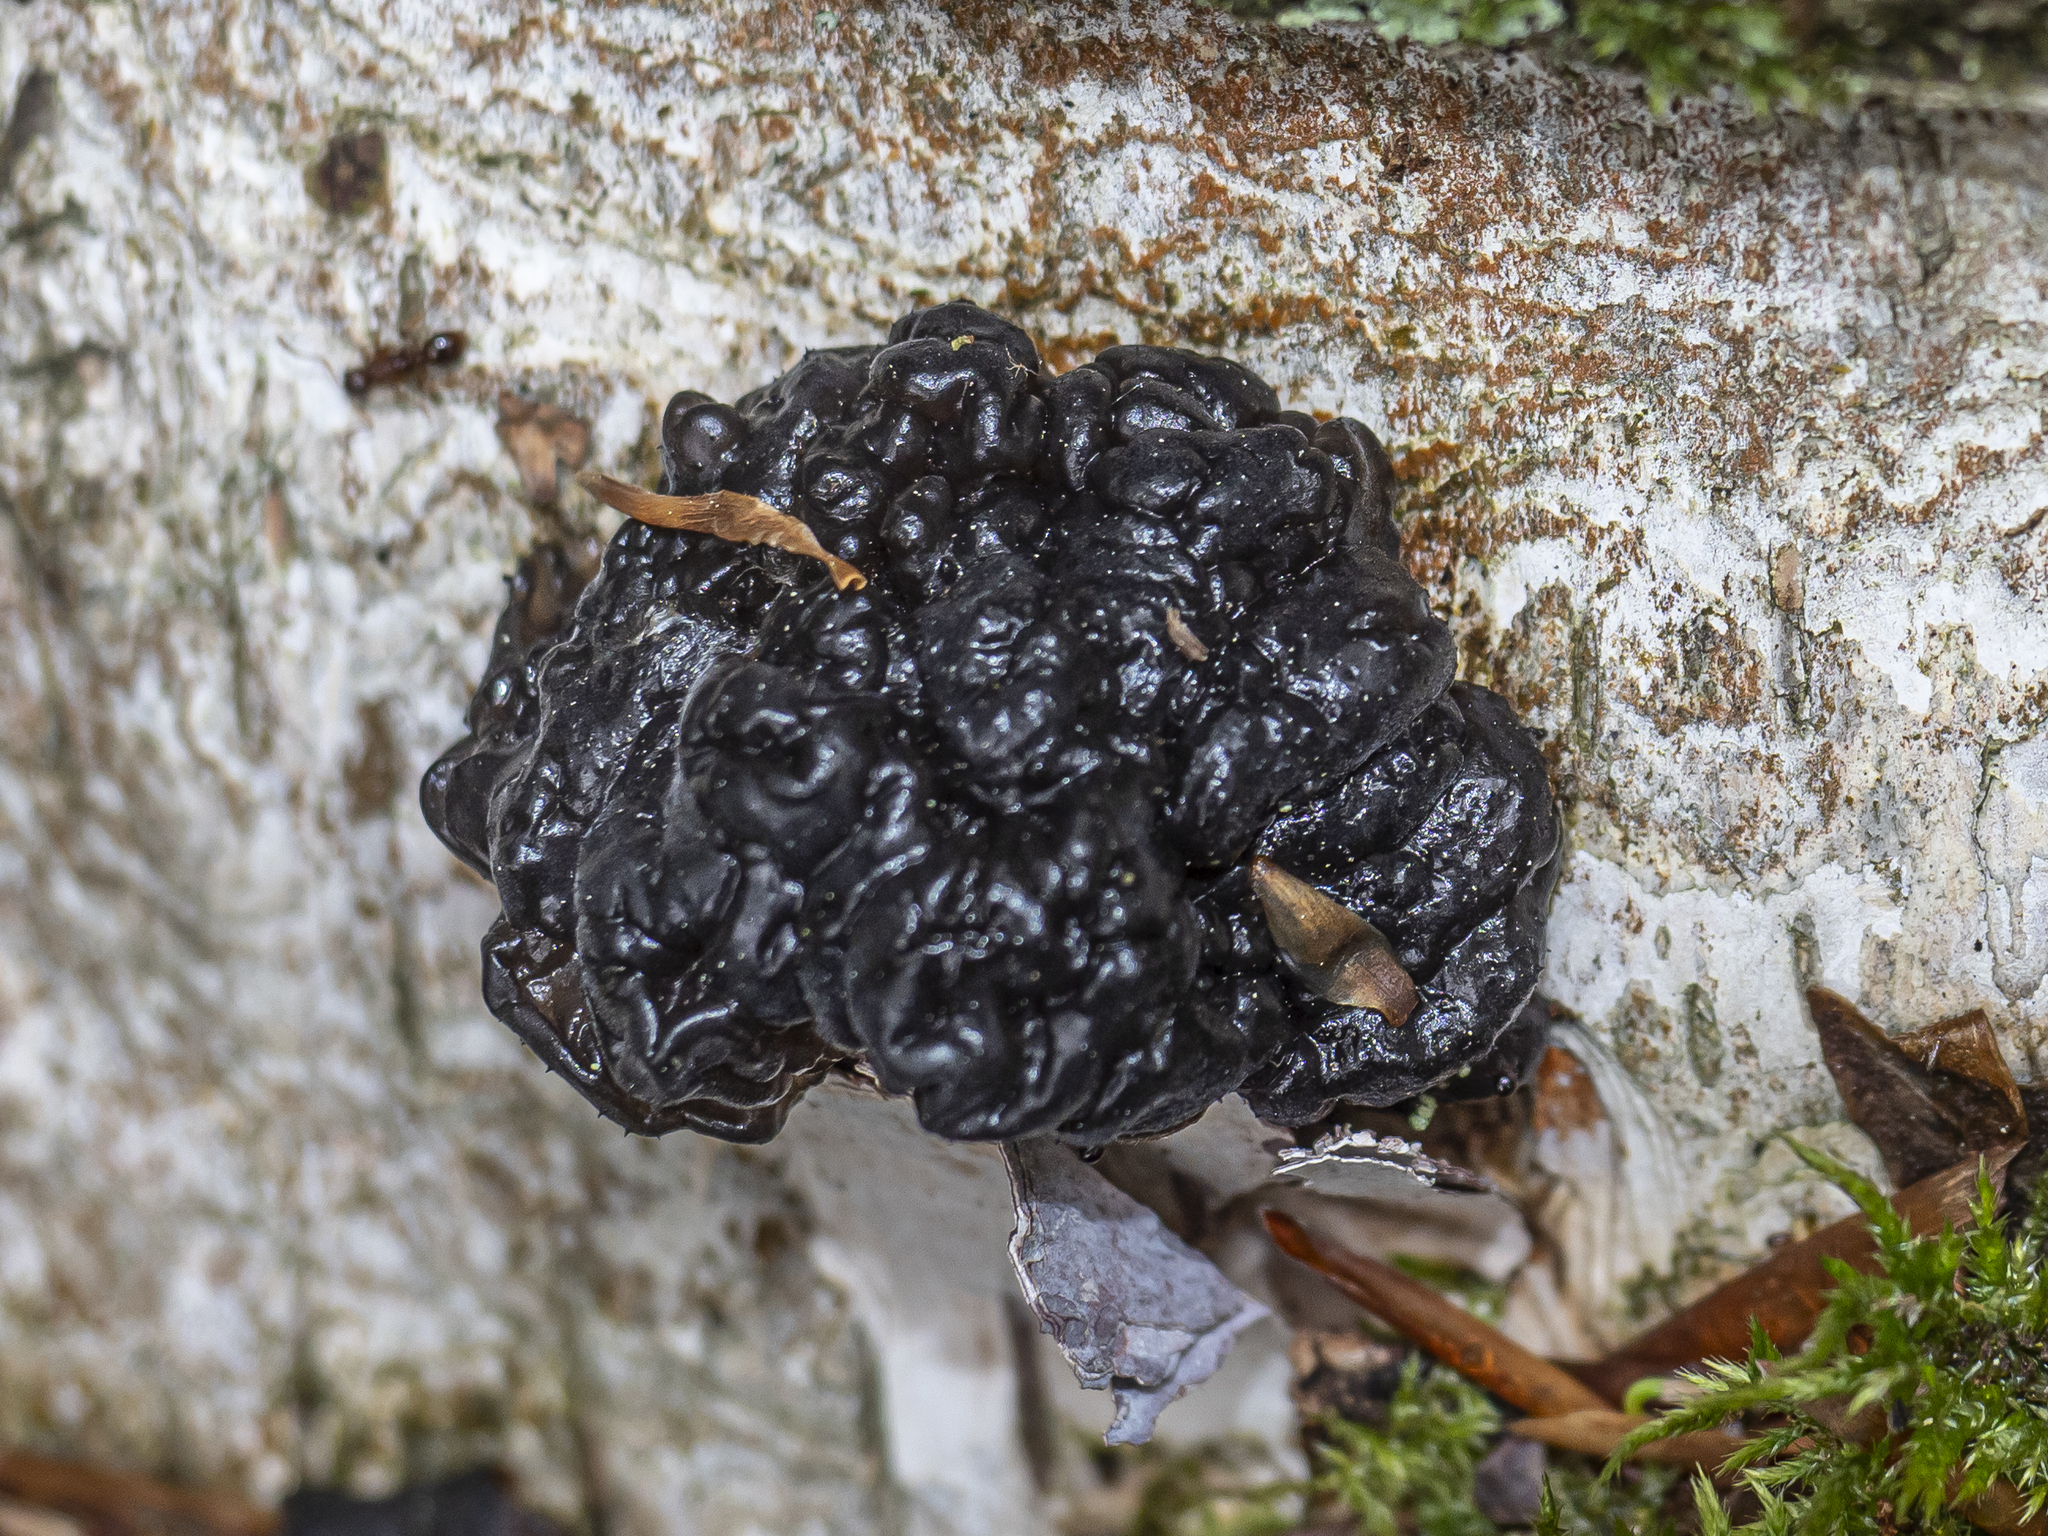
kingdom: Fungi
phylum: Basidiomycota
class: Agaricomycetes
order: Auriculariales
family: Auriculariaceae
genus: Exidia
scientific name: Exidia nigricans
